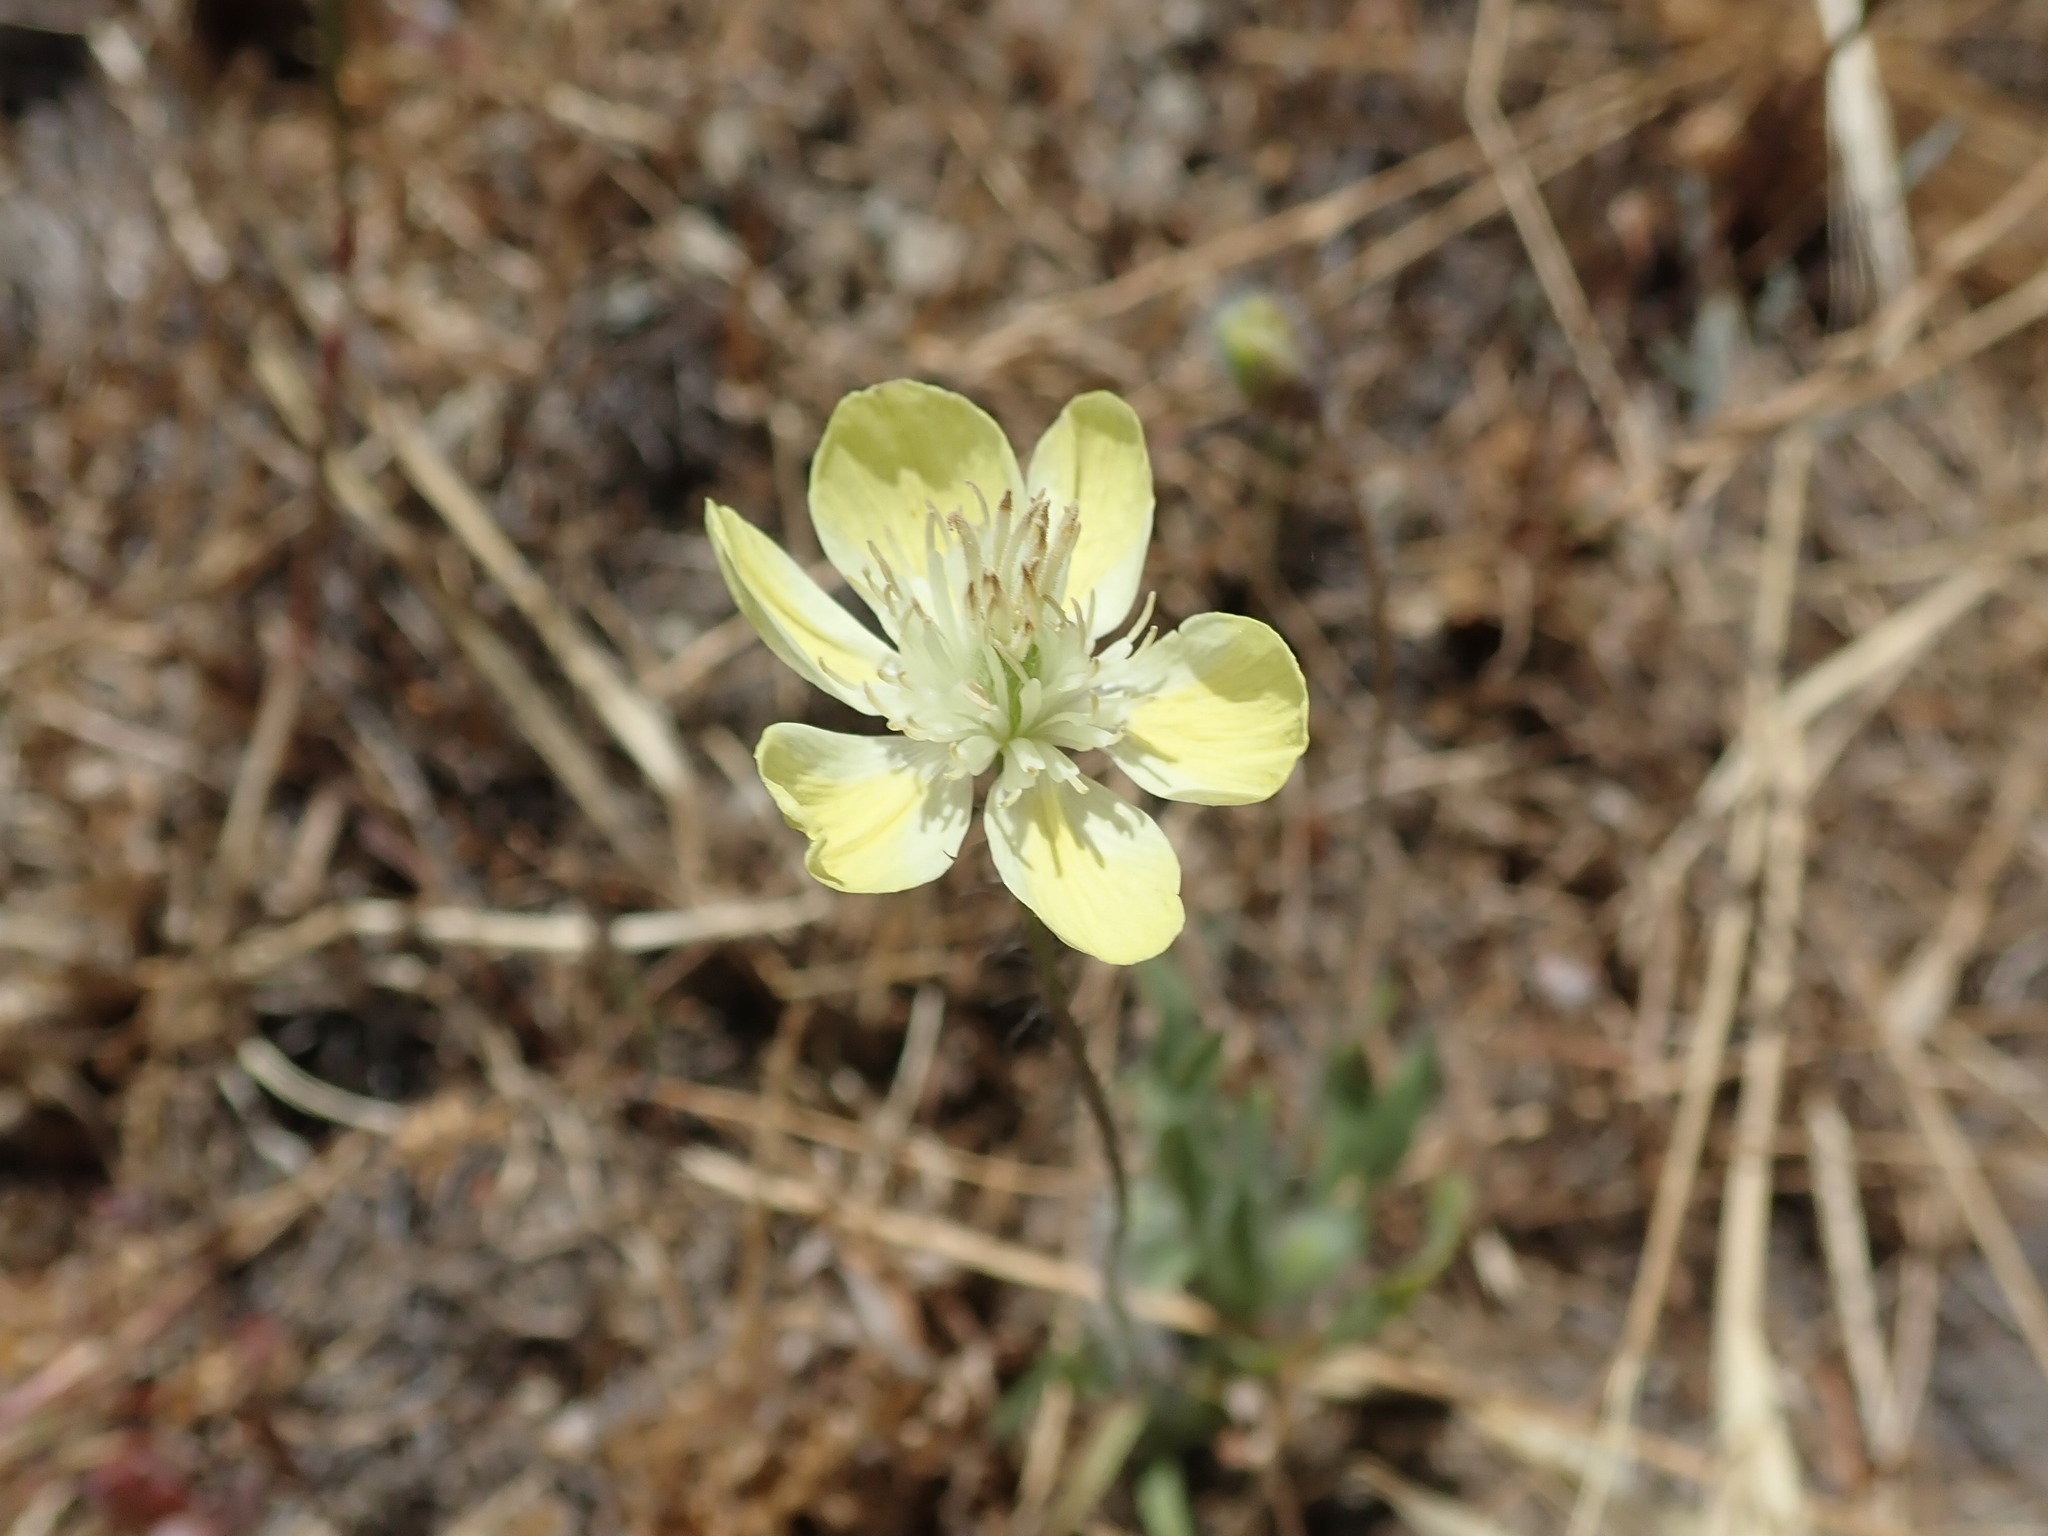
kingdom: Plantae
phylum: Tracheophyta
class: Magnoliopsida
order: Ranunculales
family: Papaveraceae
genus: Platystemon
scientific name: Platystemon californicus
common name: Cream-cups
